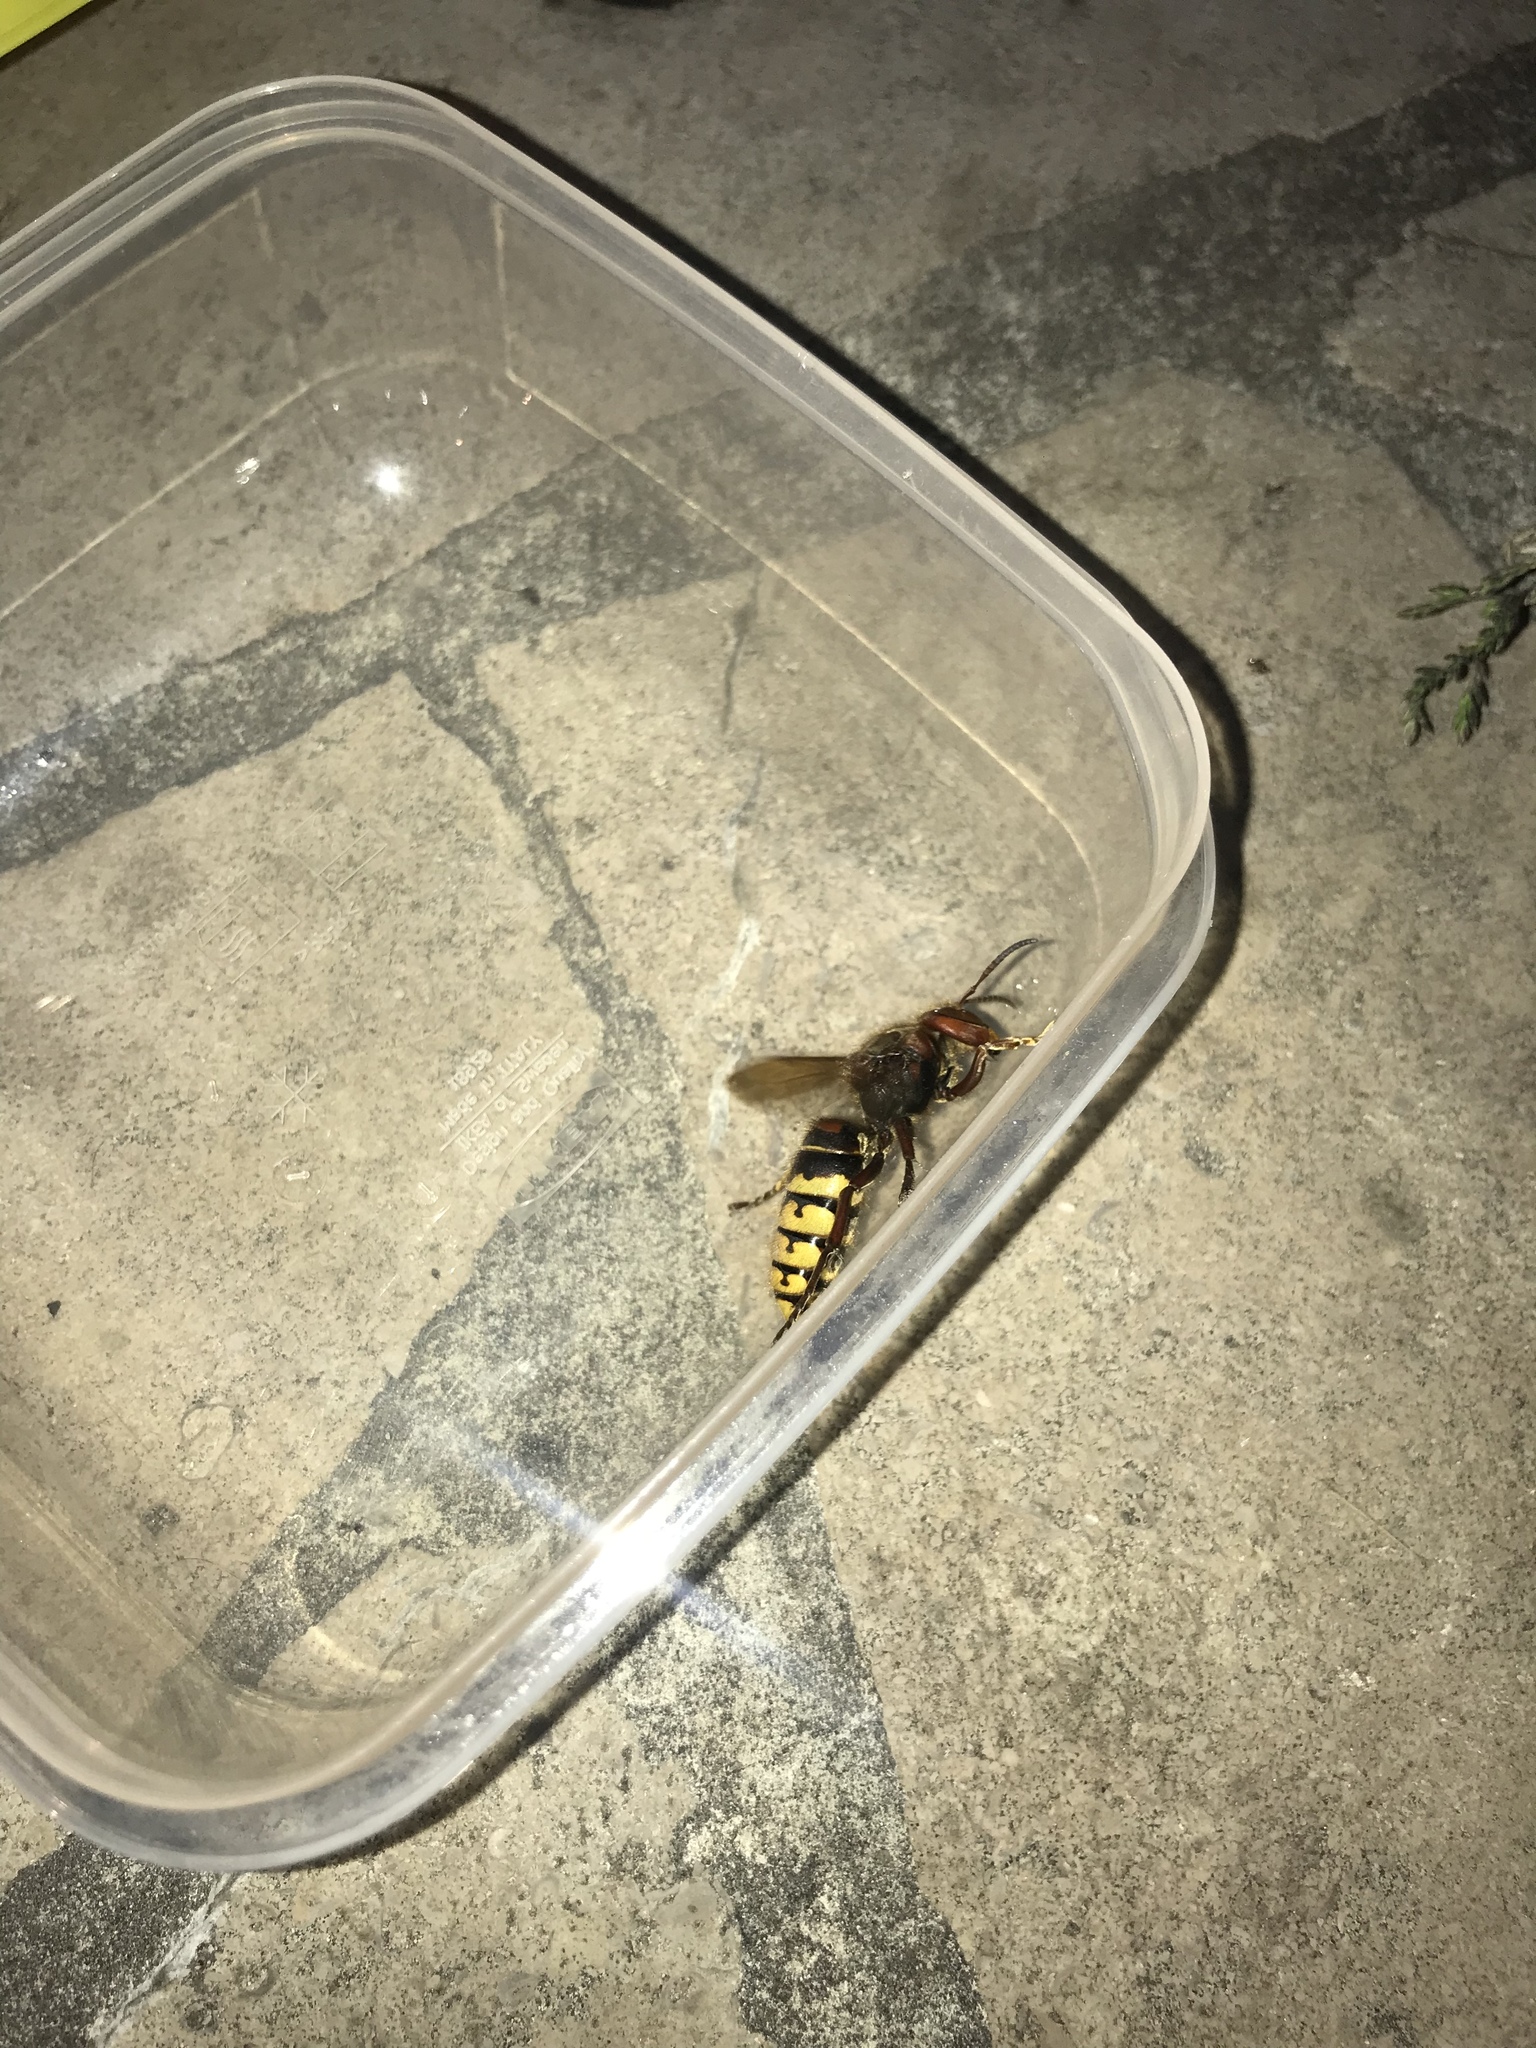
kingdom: Animalia
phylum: Arthropoda
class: Insecta
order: Hymenoptera
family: Vespidae
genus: Vespa
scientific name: Vespa crabro
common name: Hornet
